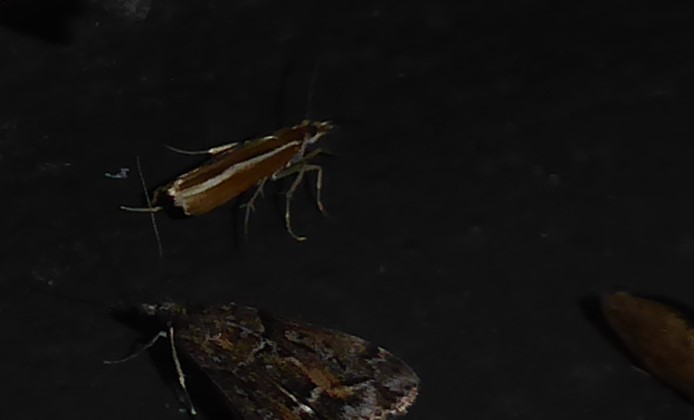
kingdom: Animalia
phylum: Arthropoda
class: Insecta
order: Lepidoptera
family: Crambidae
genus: Orocrambus
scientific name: Orocrambus melitastes
